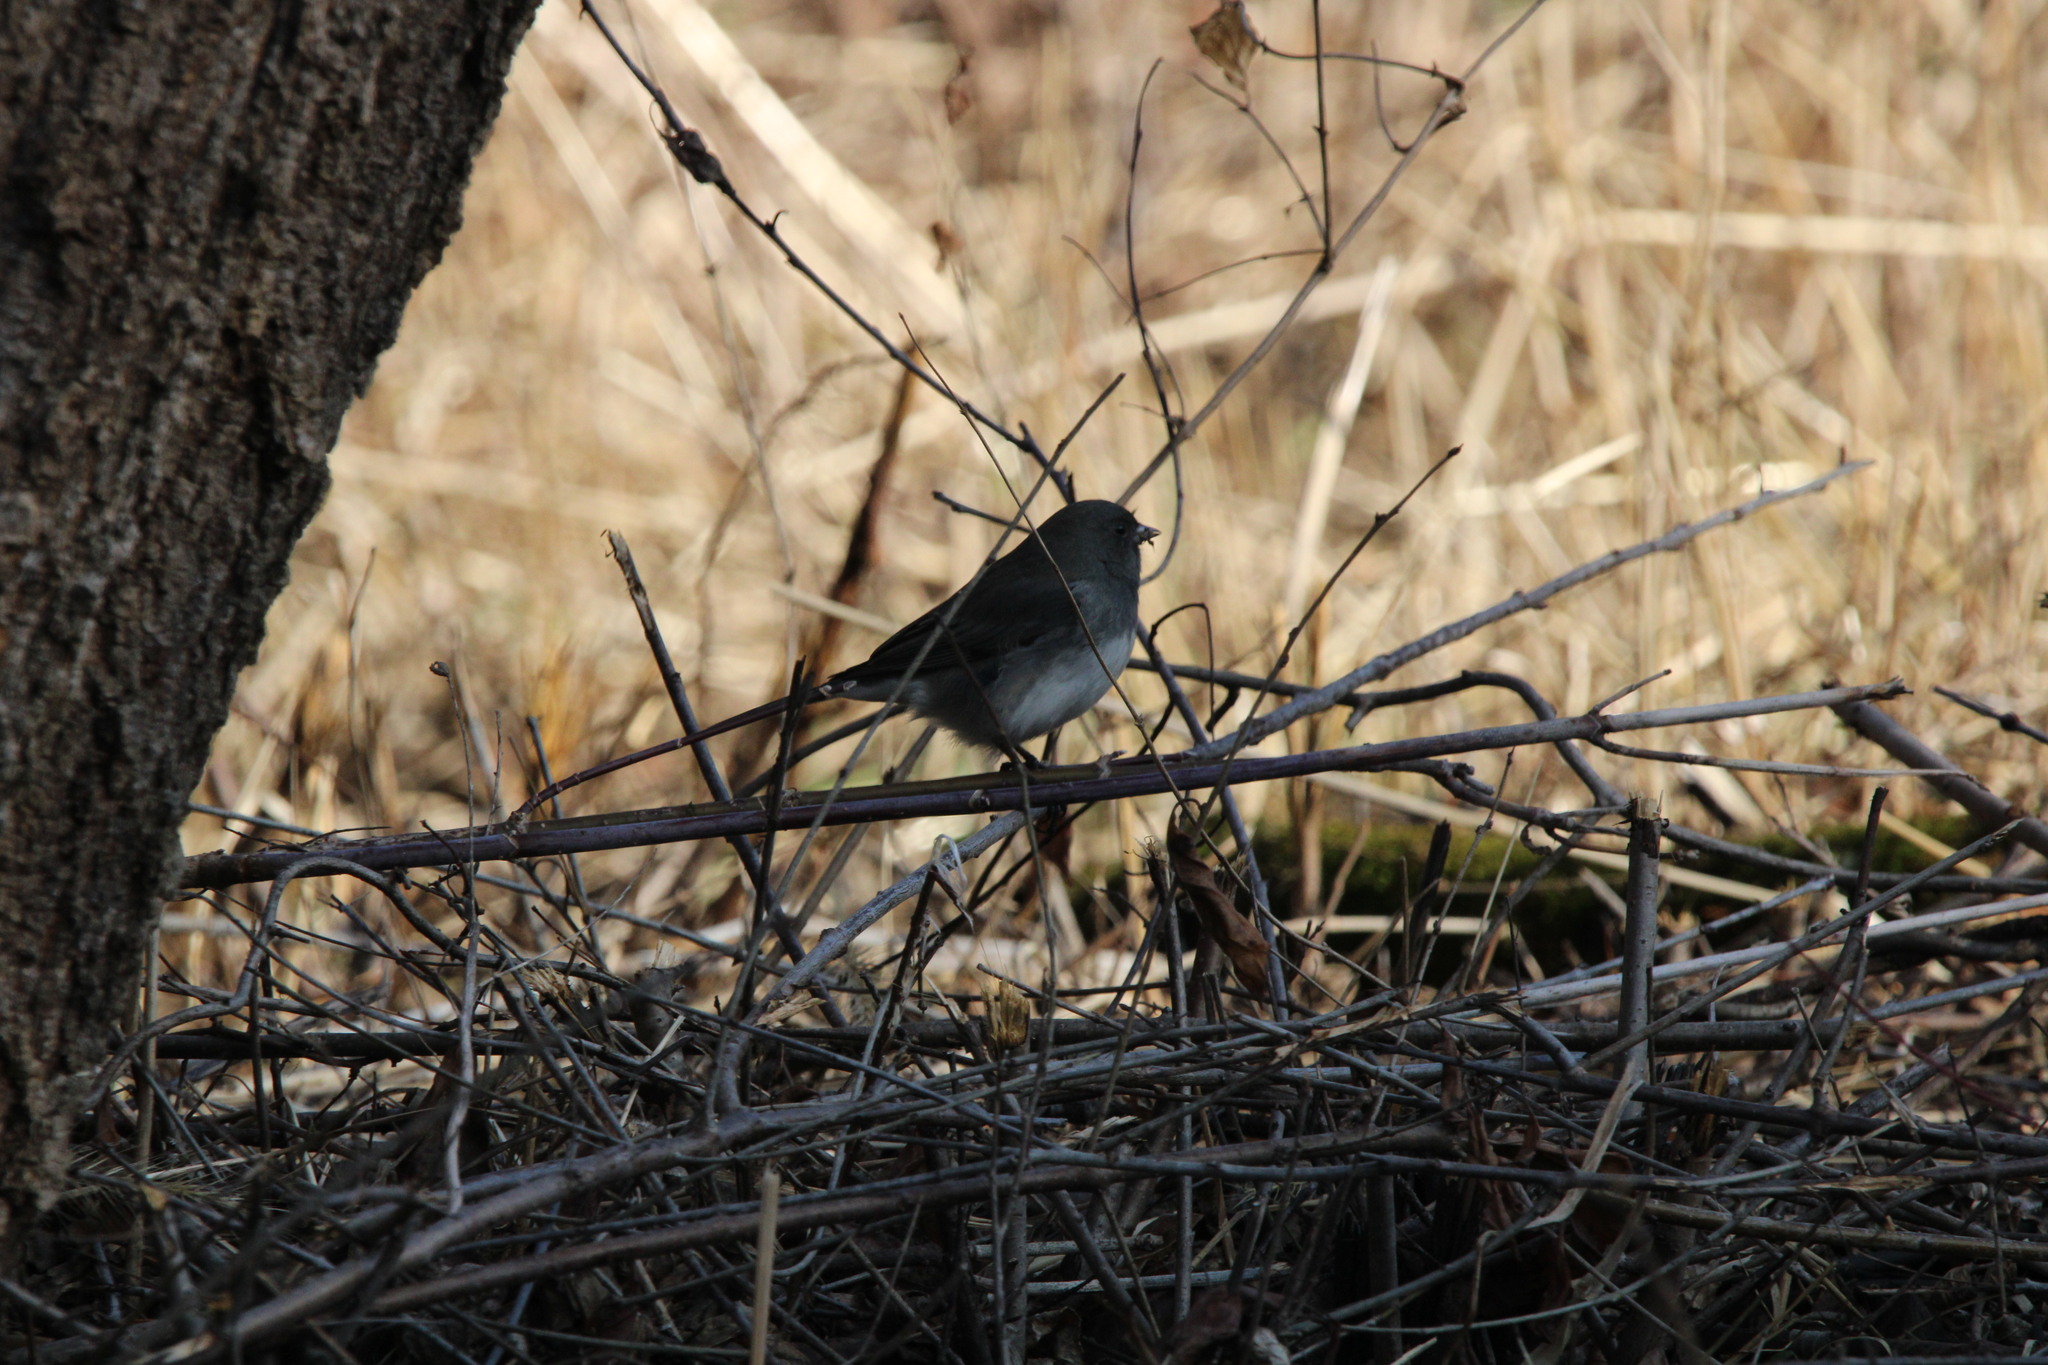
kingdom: Animalia
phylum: Chordata
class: Aves
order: Passeriformes
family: Passerellidae
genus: Junco
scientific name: Junco hyemalis
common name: Dark-eyed junco
